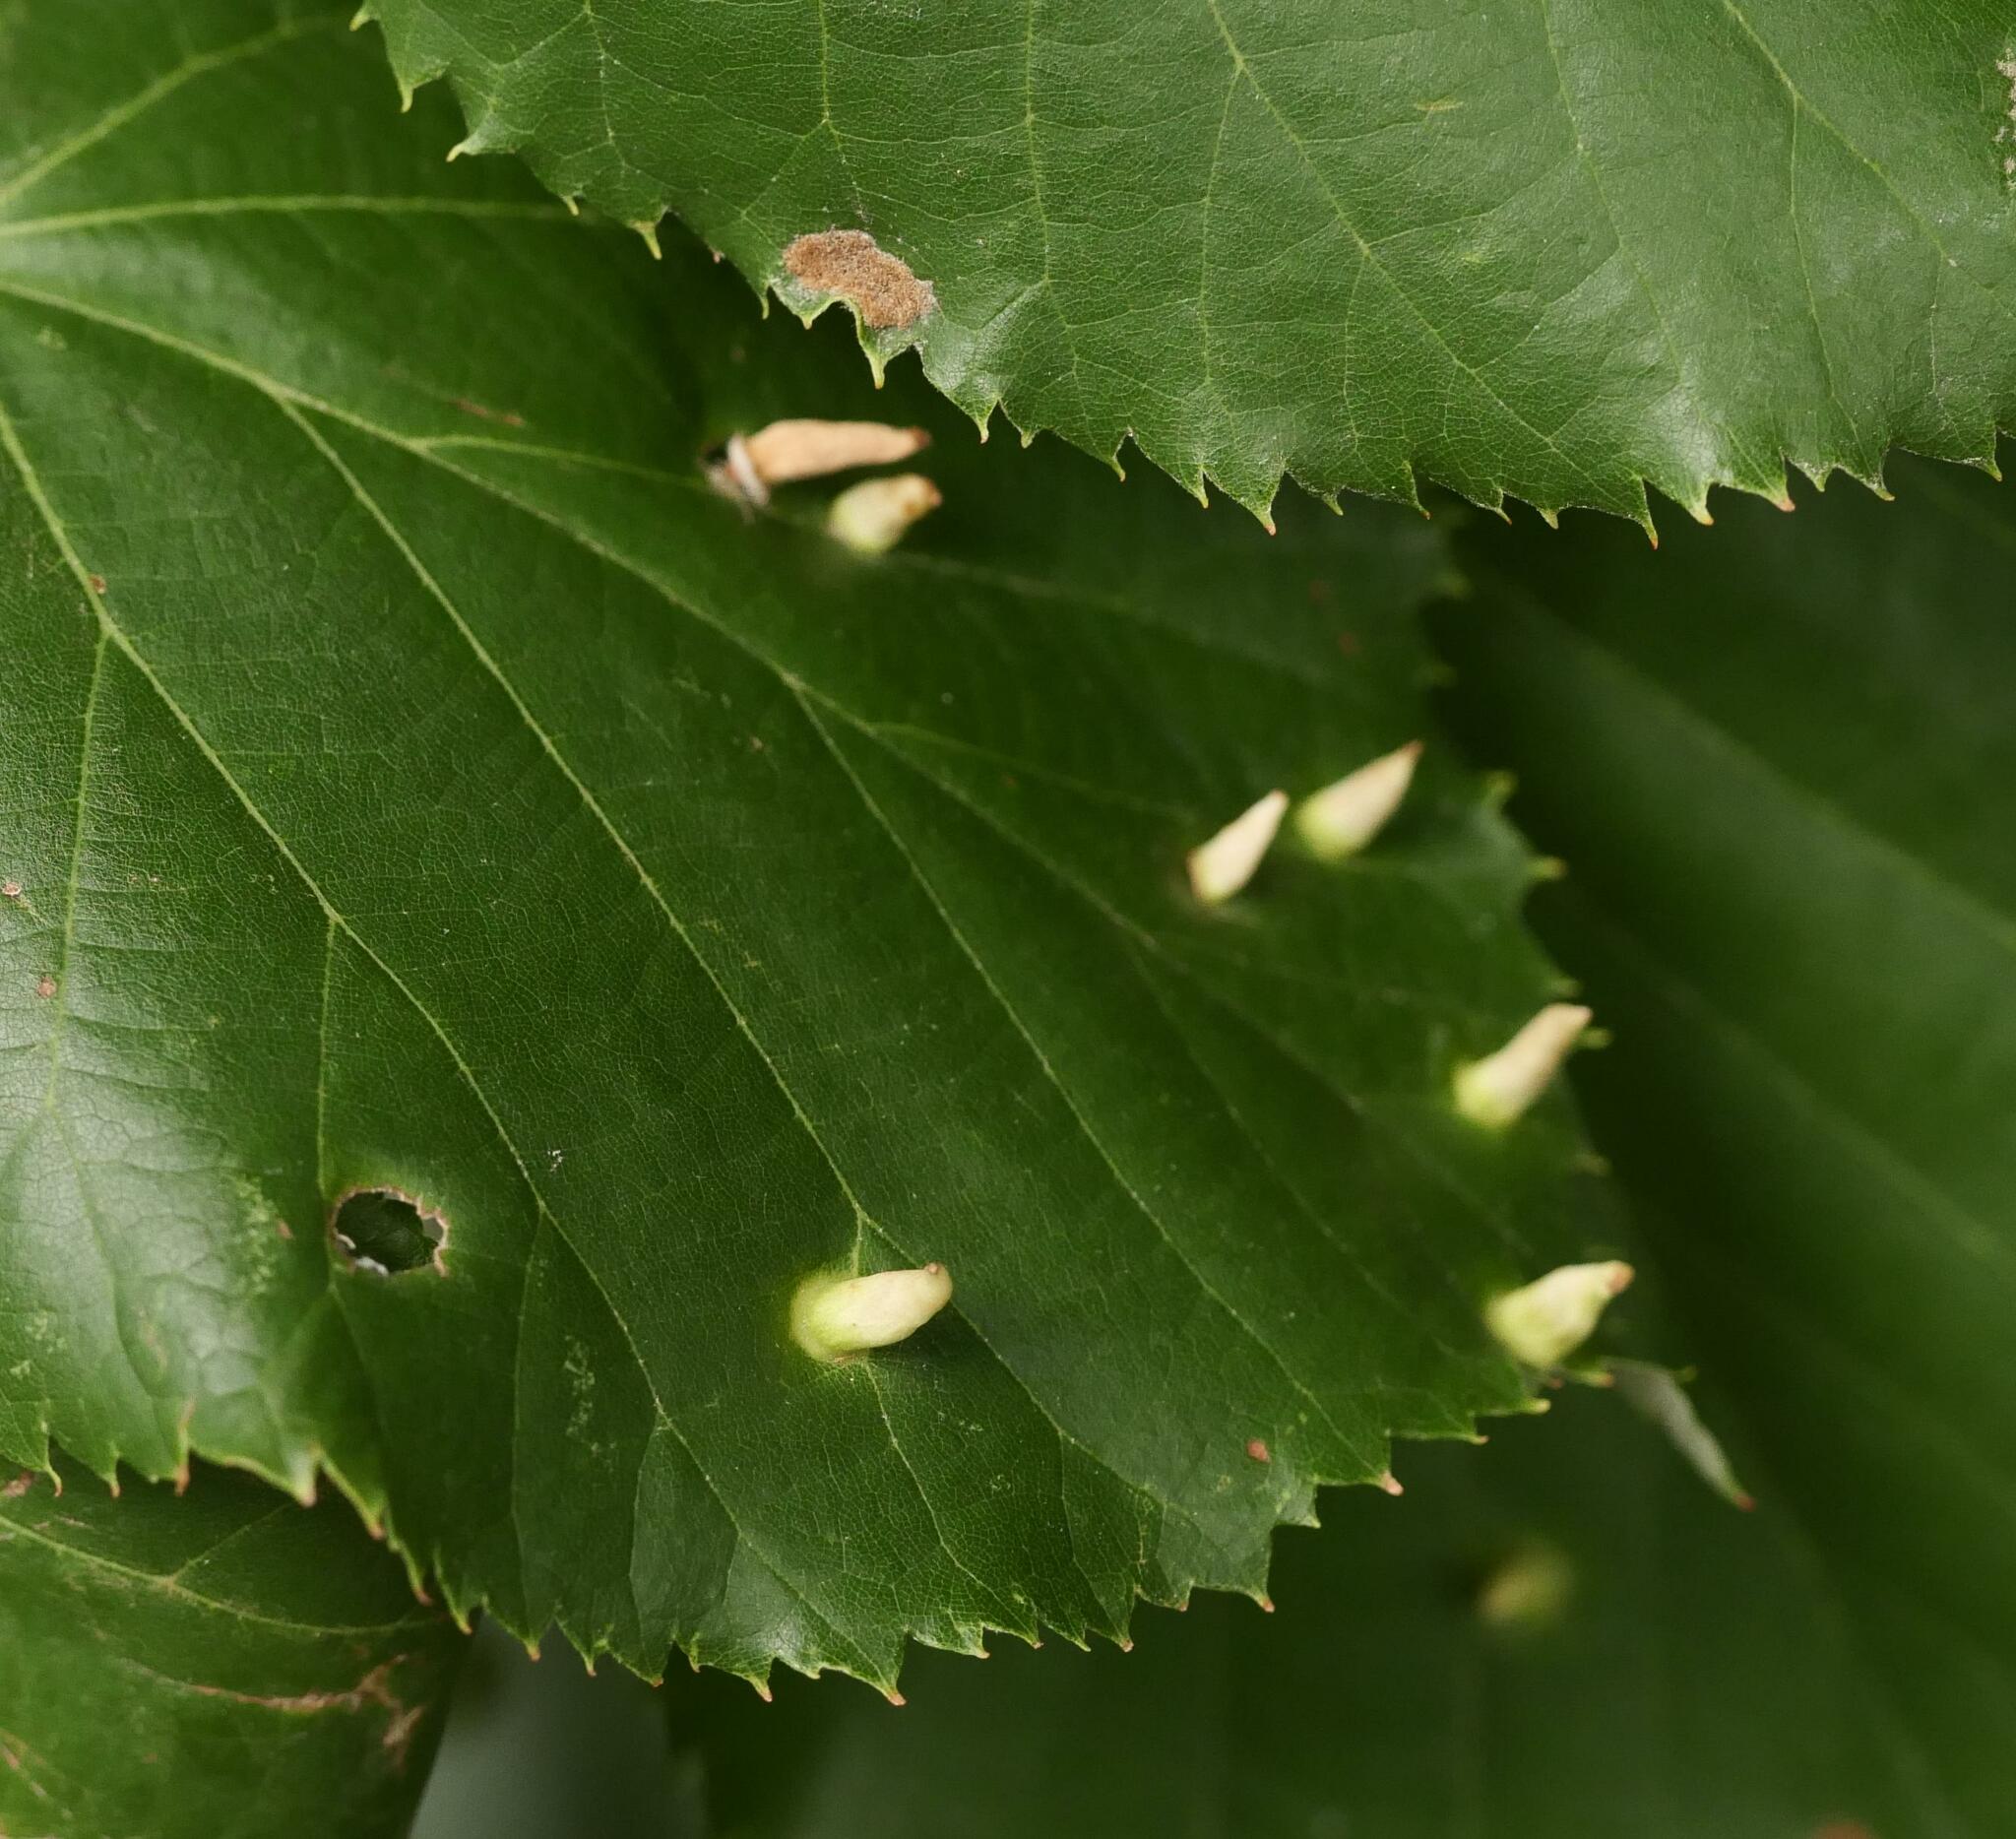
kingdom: Animalia
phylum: Arthropoda
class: Arachnida
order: Trombidiformes
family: Eriophyidae
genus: Eriophyes
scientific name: Eriophyes tiliae
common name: Red nail gall mite
